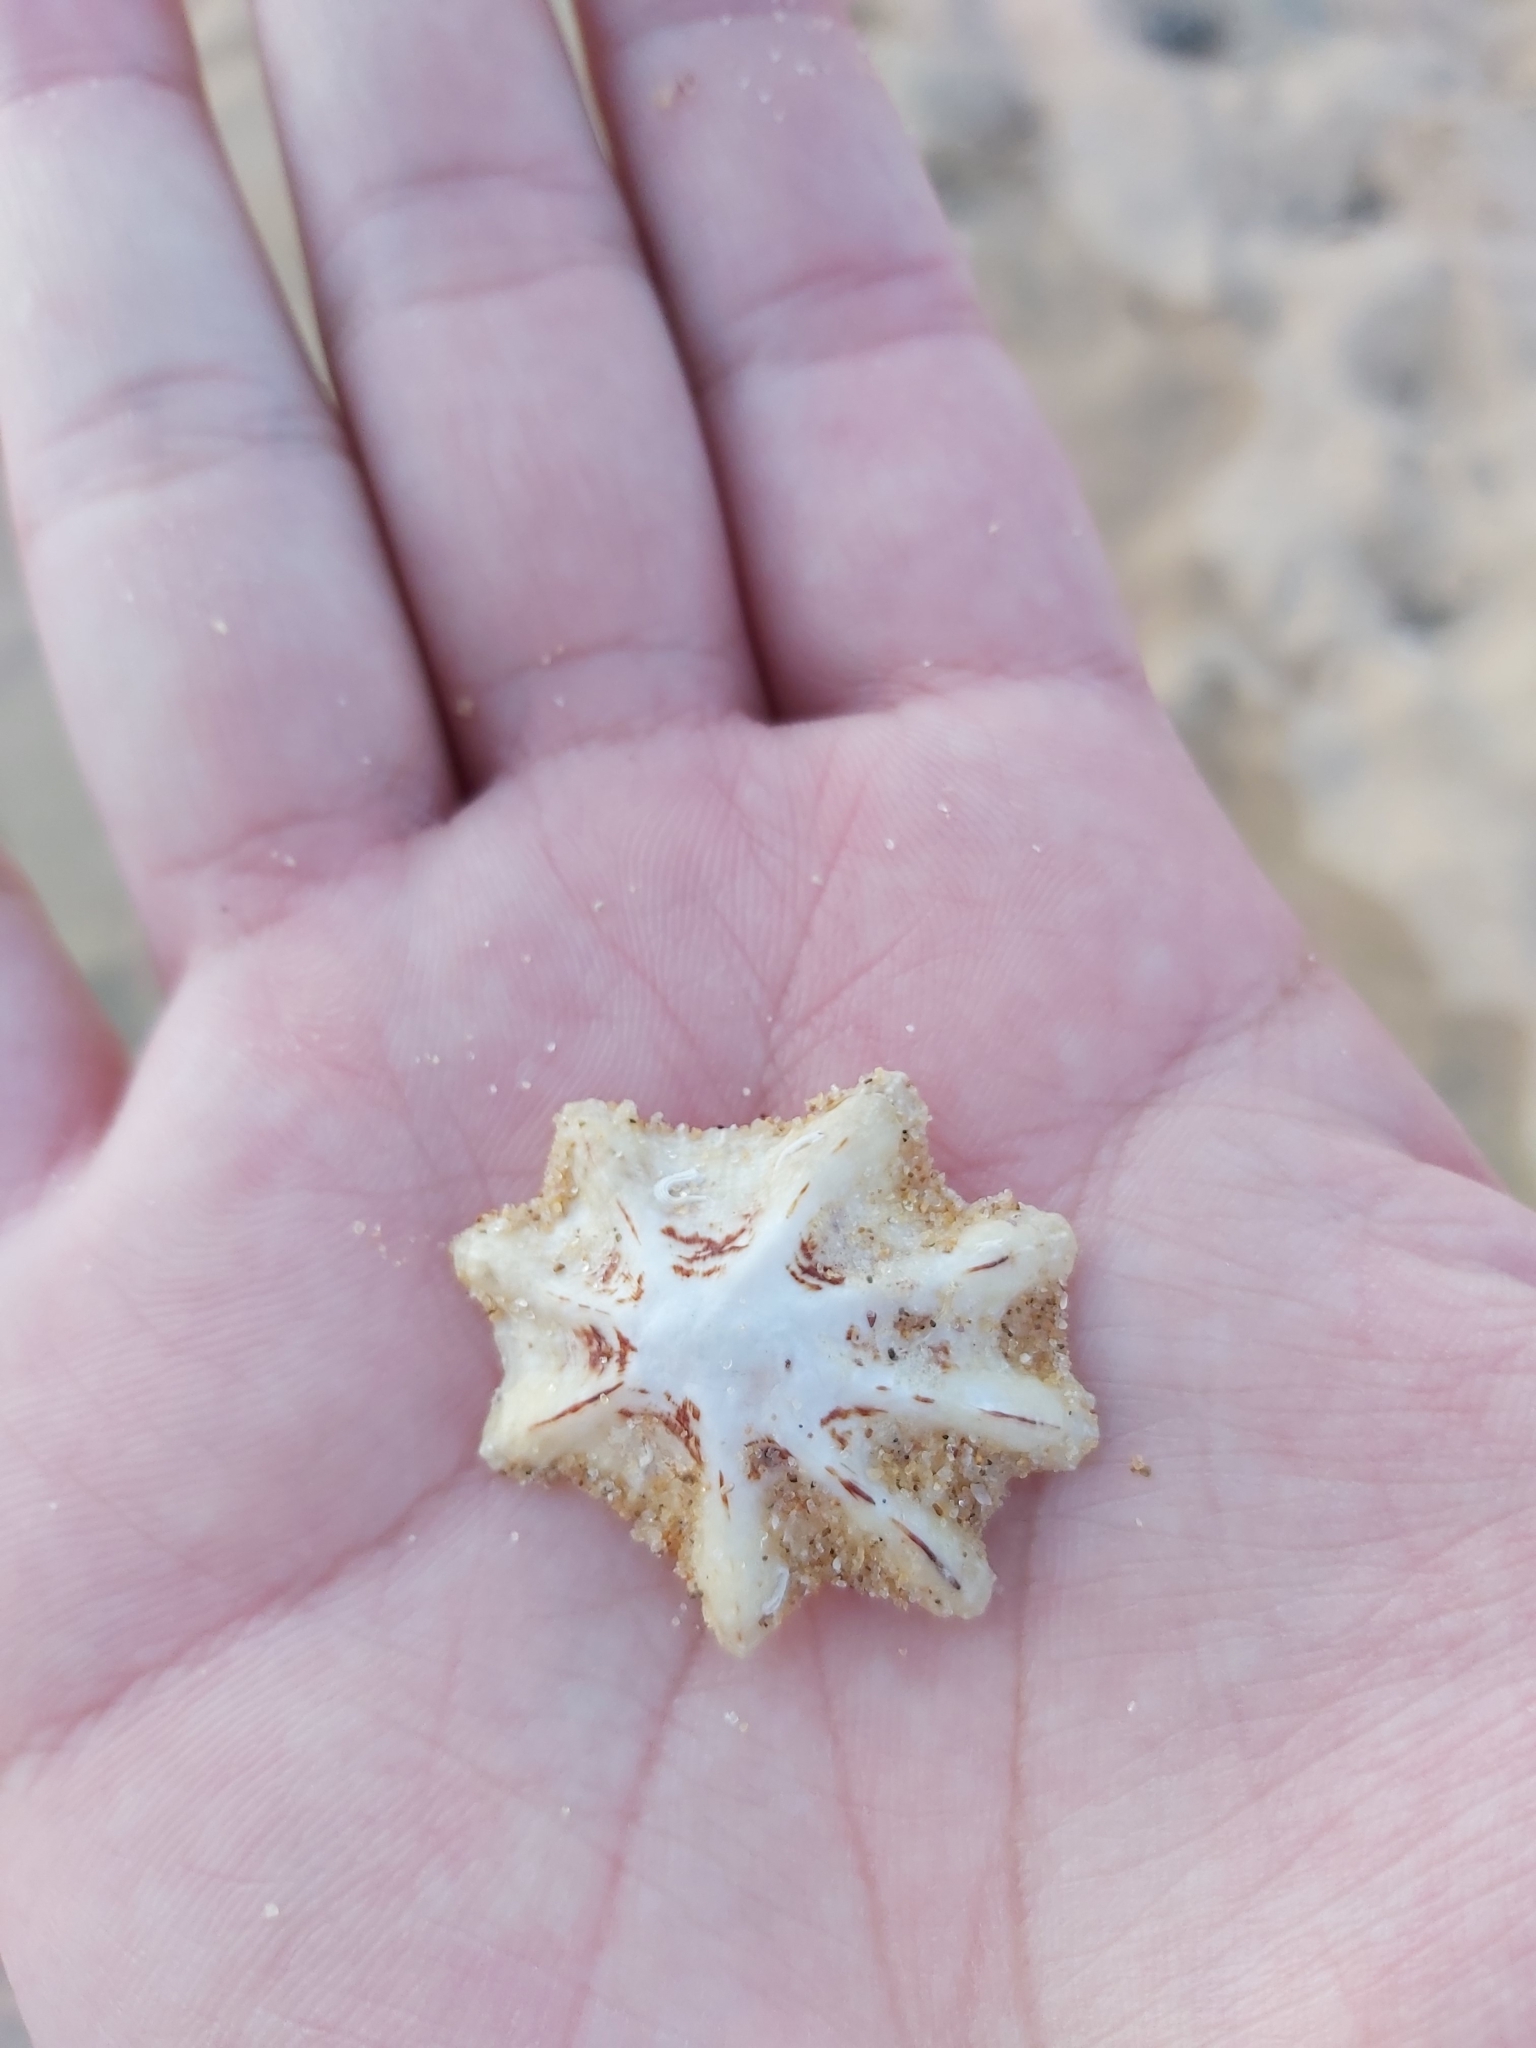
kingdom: Animalia
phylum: Mollusca
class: Gastropoda
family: Patellidae
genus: Scutellastra
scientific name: Scutellastra chapmani
